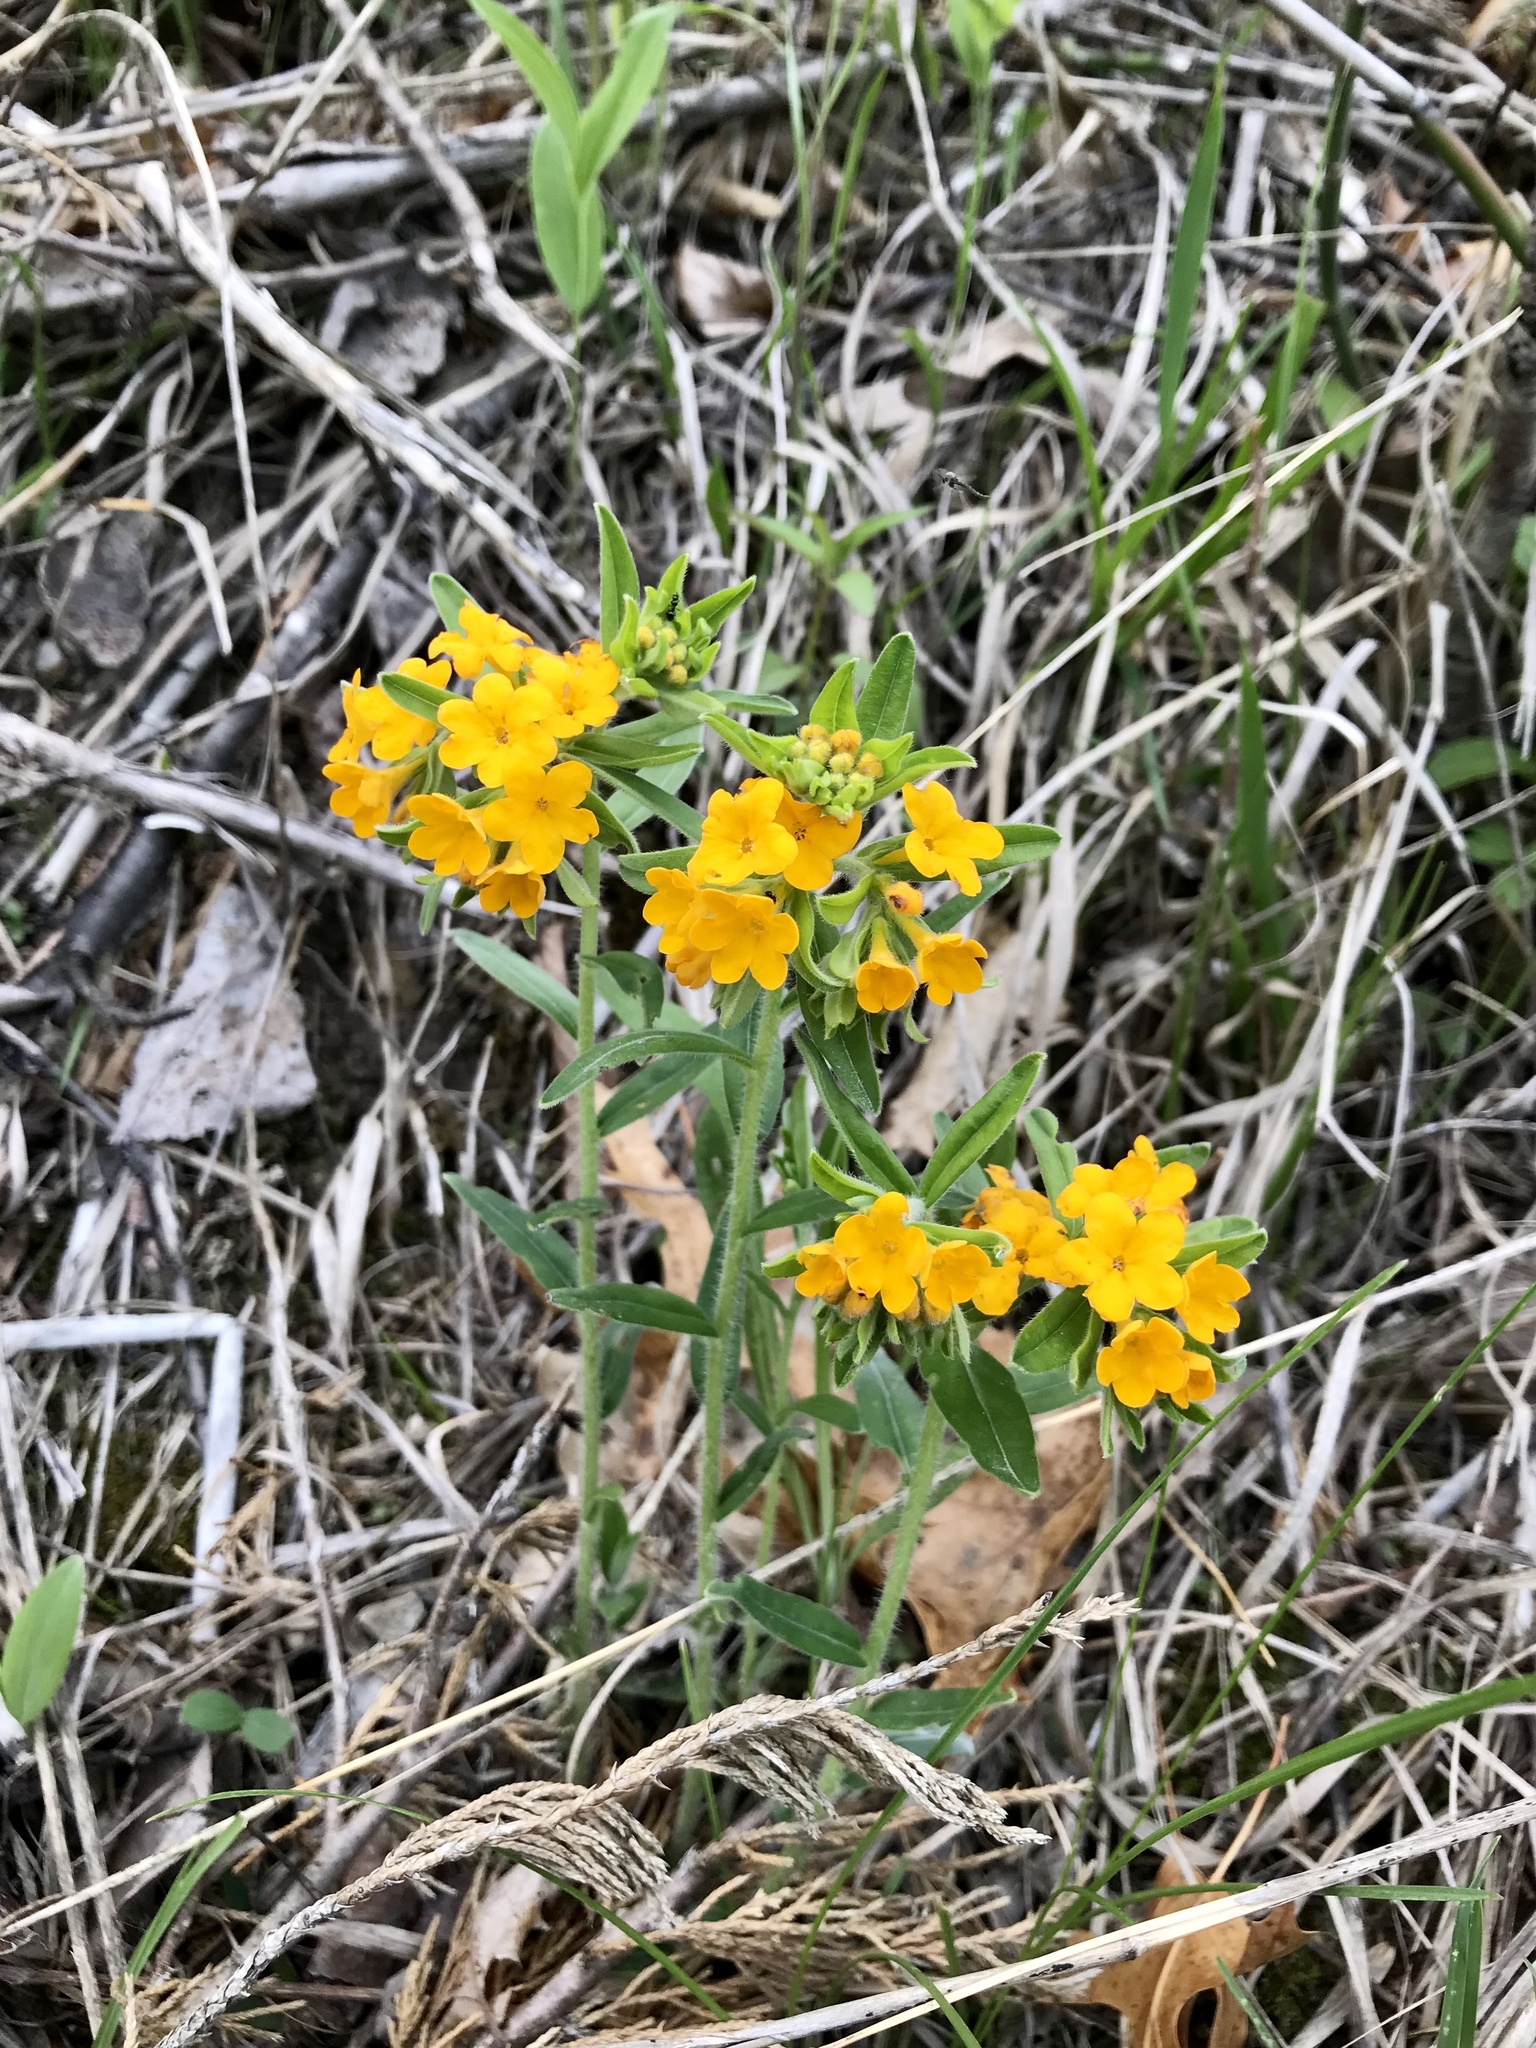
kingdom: Plantae
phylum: Tracheophyta
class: Magnoliopsida
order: Boraginales
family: Boraginaceae
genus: Lithospermum
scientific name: Lithospermum canescens
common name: Hoary puccoon
